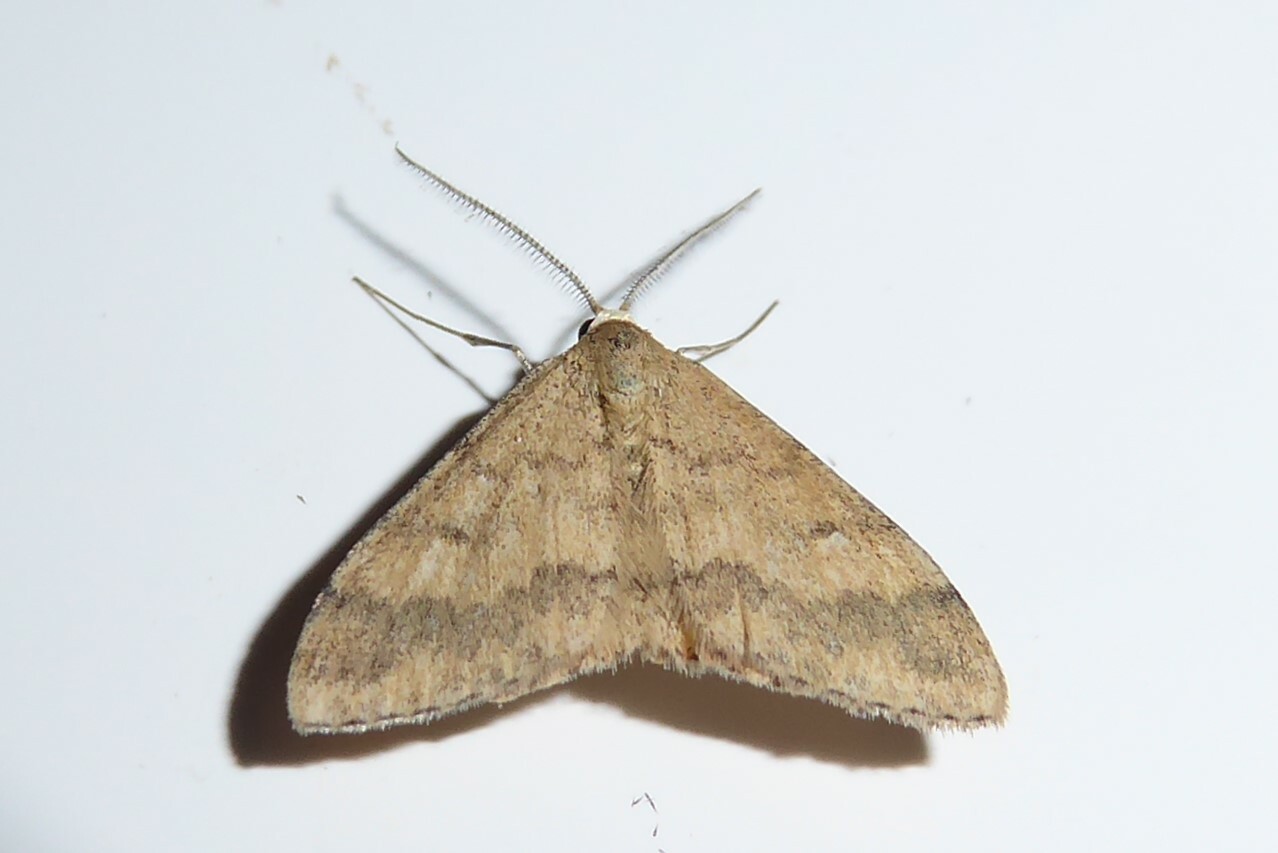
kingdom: Animalia
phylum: Arthropoda
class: Insecta
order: Lepidoptera
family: Geometridae
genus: Scopula
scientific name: Scopula rubraria
